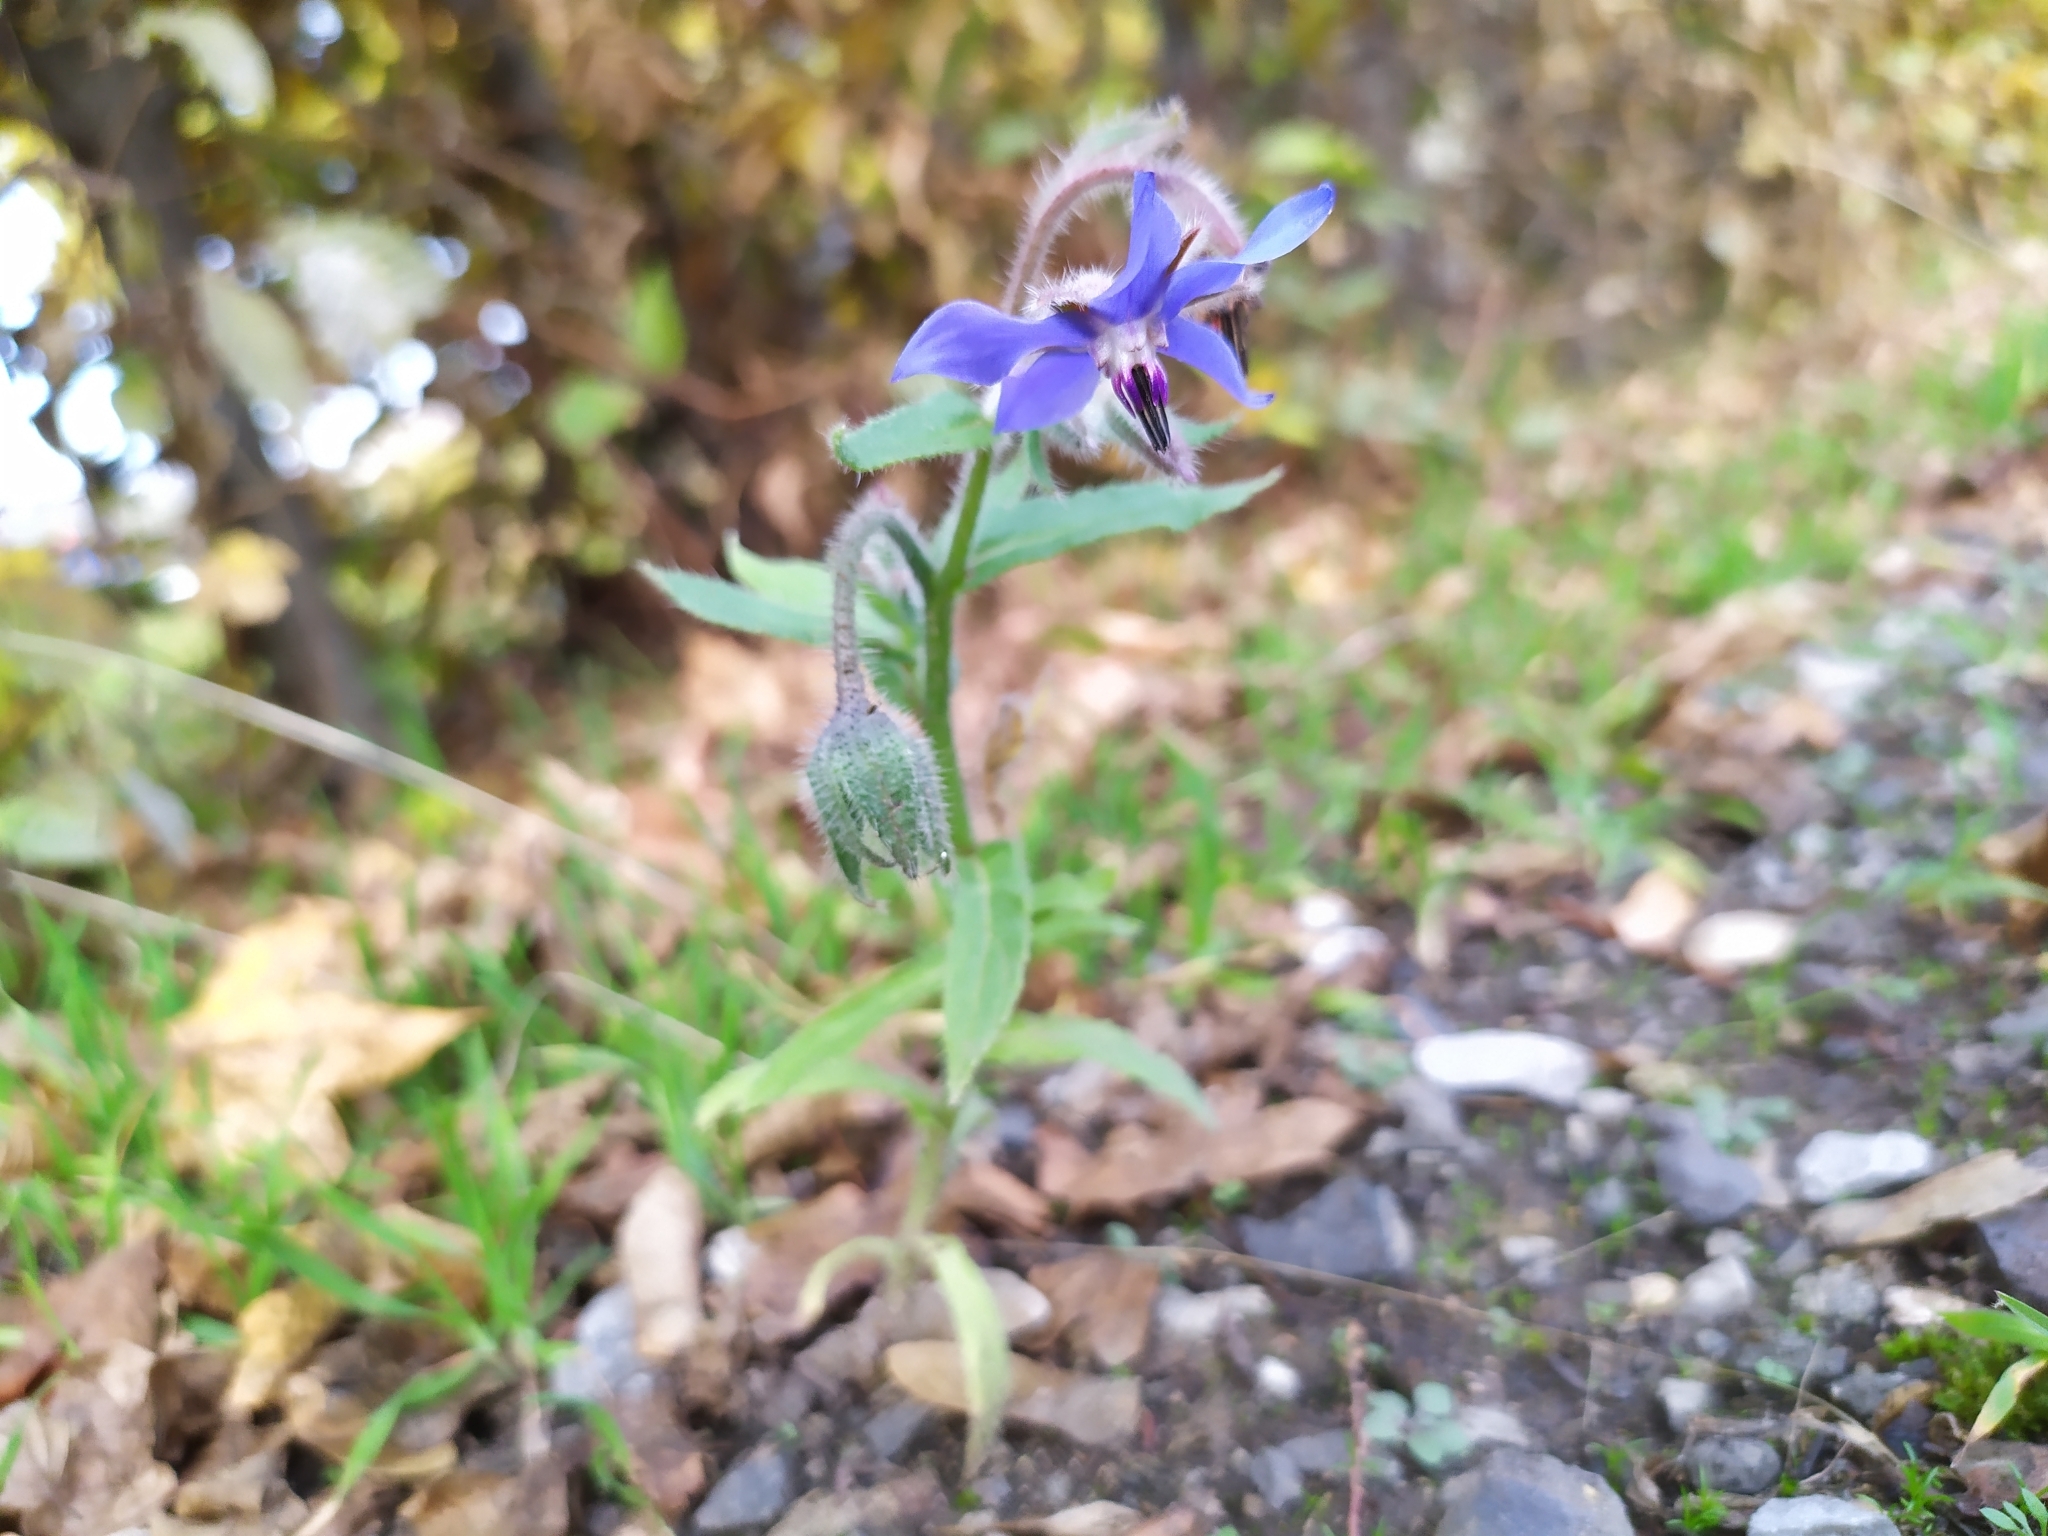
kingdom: Plantae
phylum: Tracheophyta
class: Magnoliopsida
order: Boraginales
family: Boraginaceae
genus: Borago
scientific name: Borago officinalis
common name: Borage
